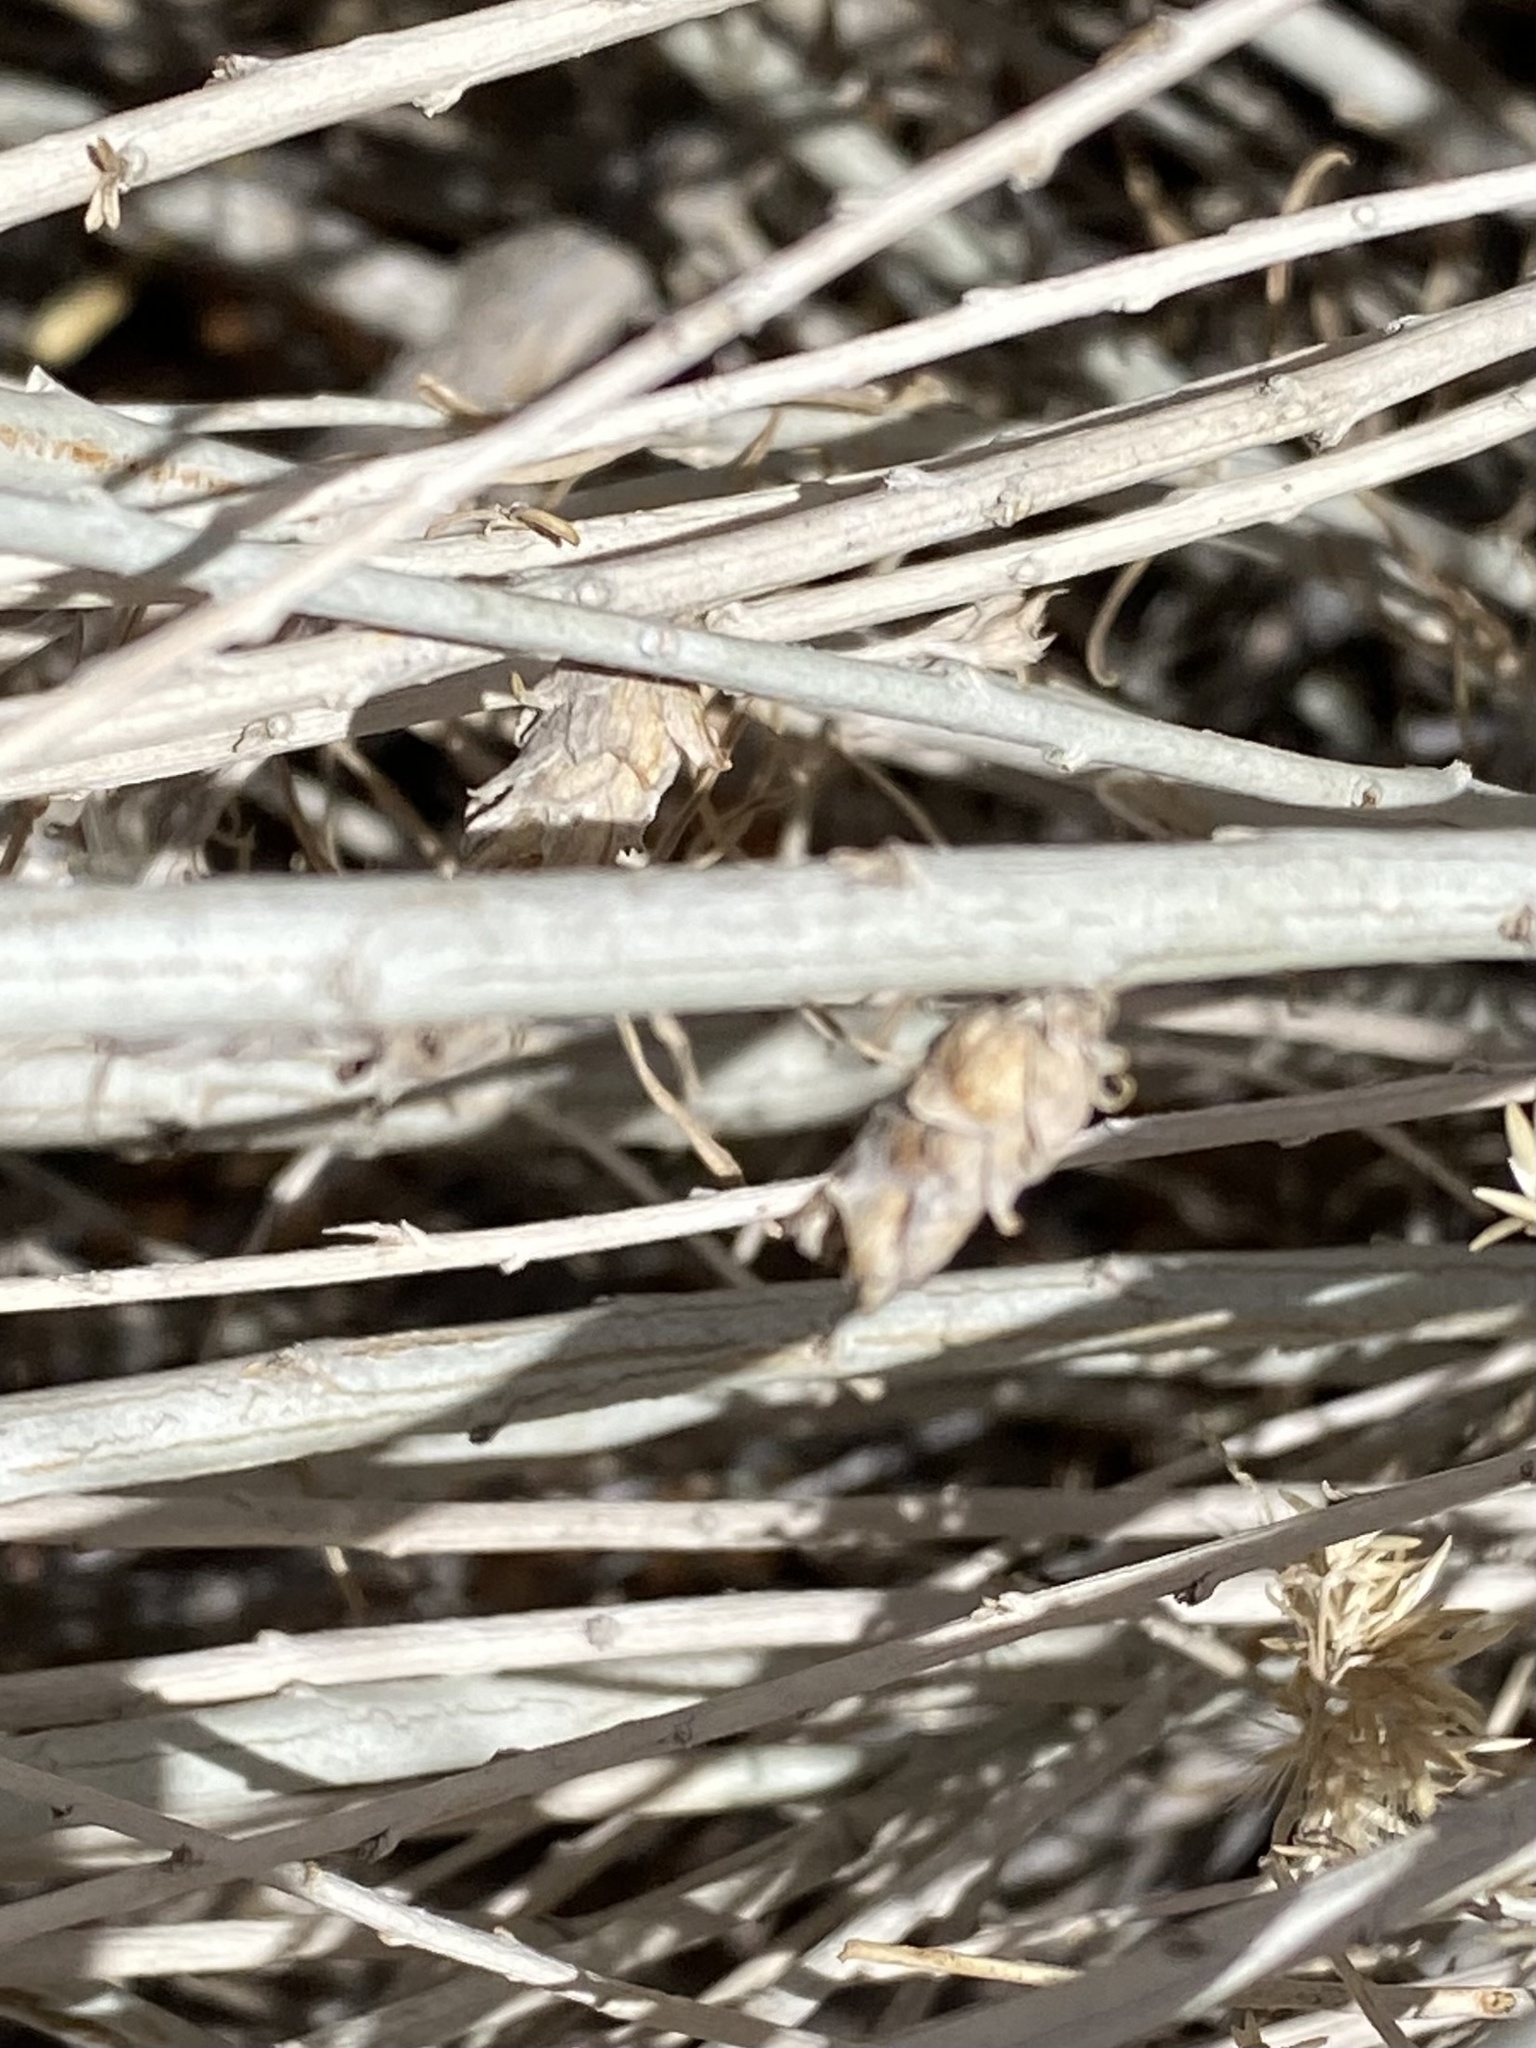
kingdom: Animalia
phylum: Arthropoda
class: Insecta
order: Diptera
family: Cecidomyiidae
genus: Rhopalomyia
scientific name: Rhopalomyia ericameriae
